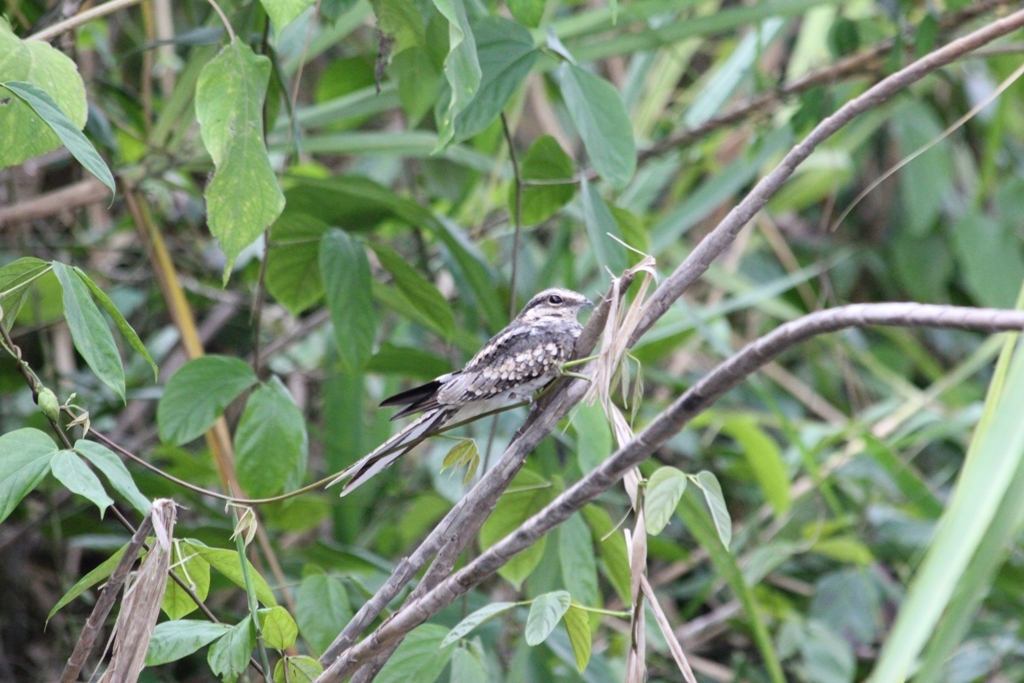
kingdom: Animalia
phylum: Chordata
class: Aves
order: Caprimulgiformes
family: Caprimulgidae
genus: Hydropsalis
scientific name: Hydropsalis climacocerca
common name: Ladder-tailed nightjar
